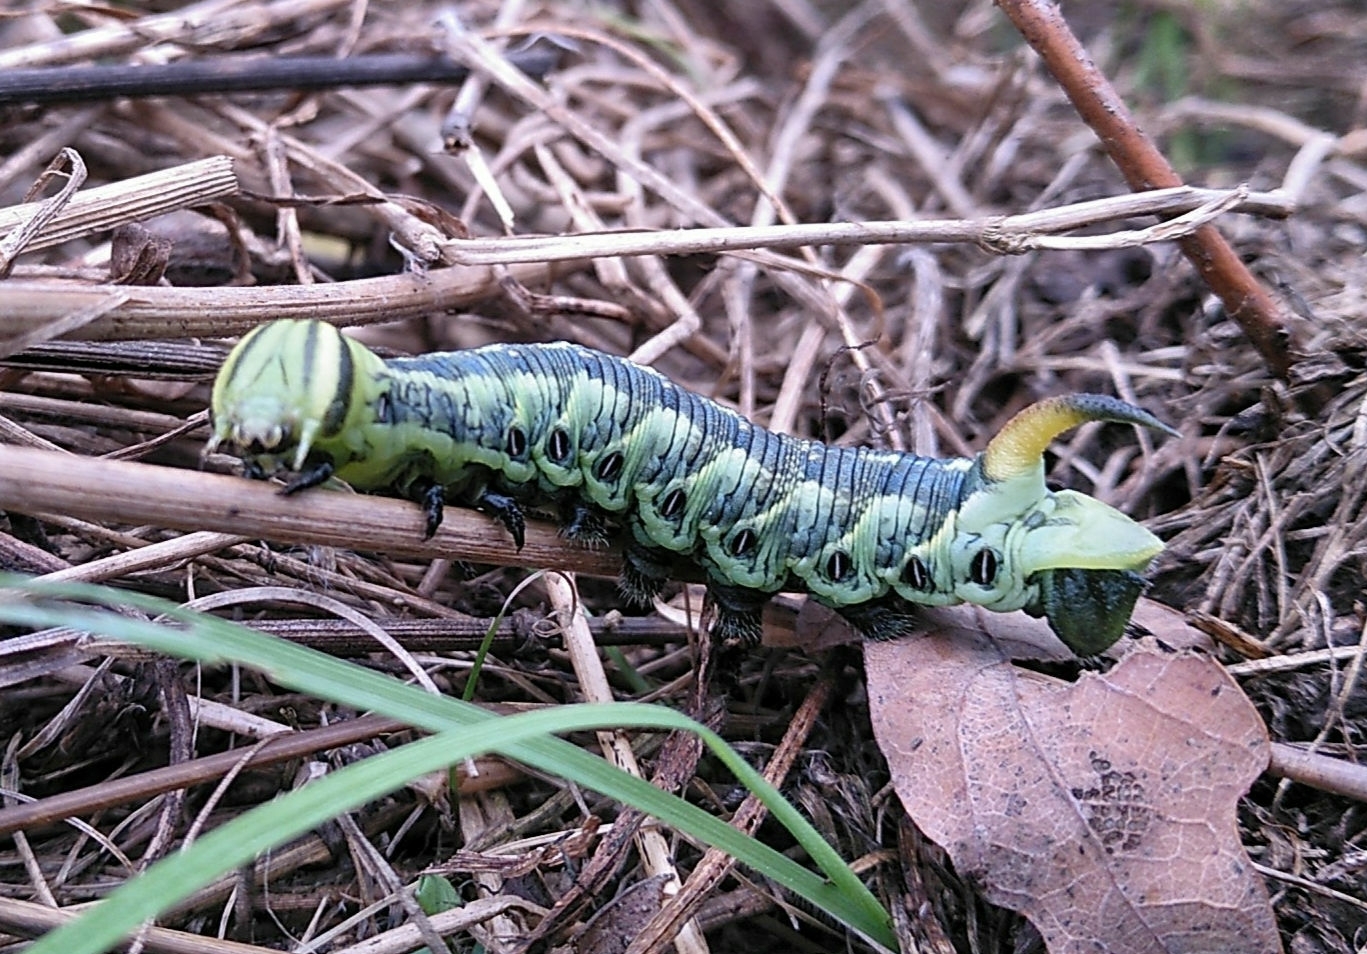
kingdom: Animalia
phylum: Arthropoda
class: Insecta
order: Lepidoptera
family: Sphingidae
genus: Agrius
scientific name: Agrius convolvuli
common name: Convolvulus hawkmoth
